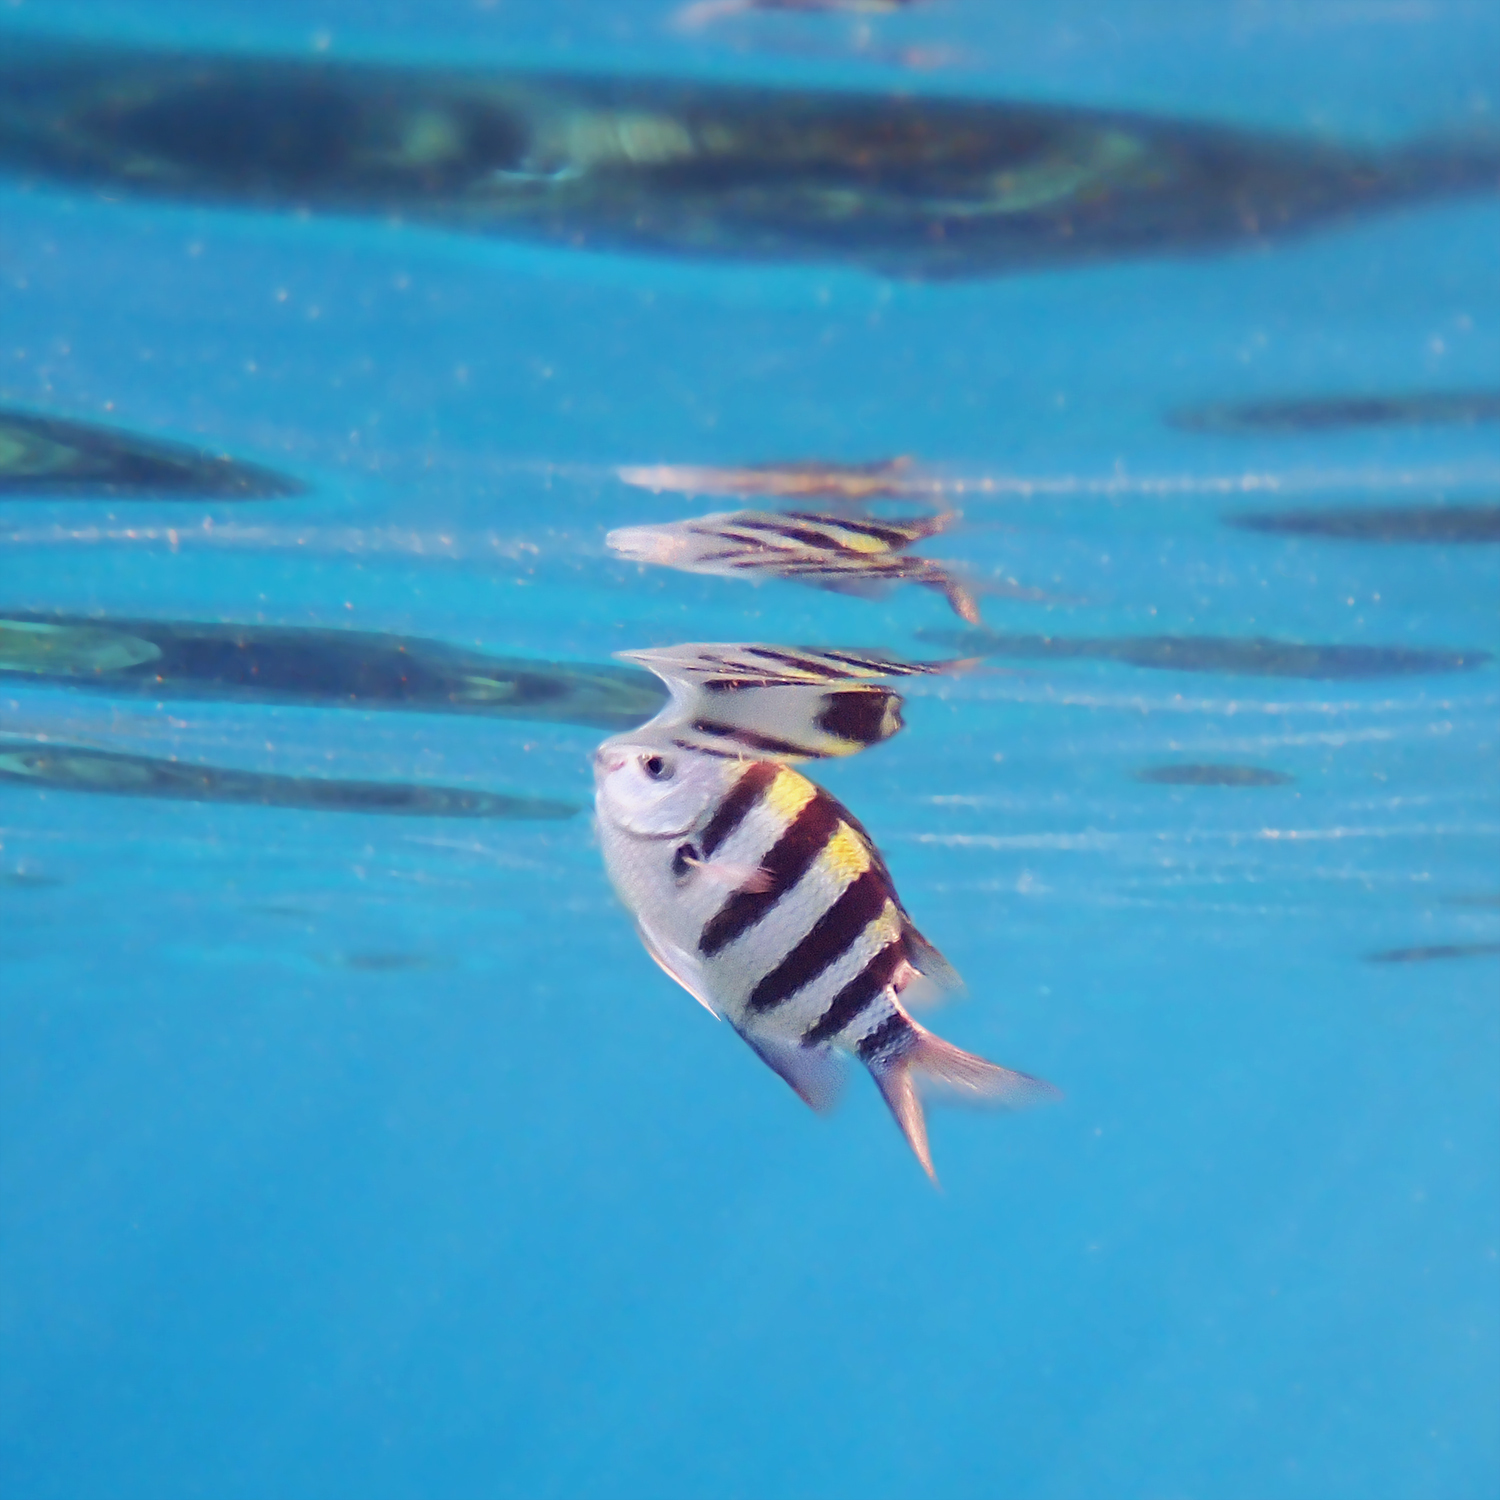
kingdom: Animalia
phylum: Chordata
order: Perciformes
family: Pomacentridae
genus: Abudefduf
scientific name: Abudefduf vaigiensis
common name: Indo-pacific sergeant
